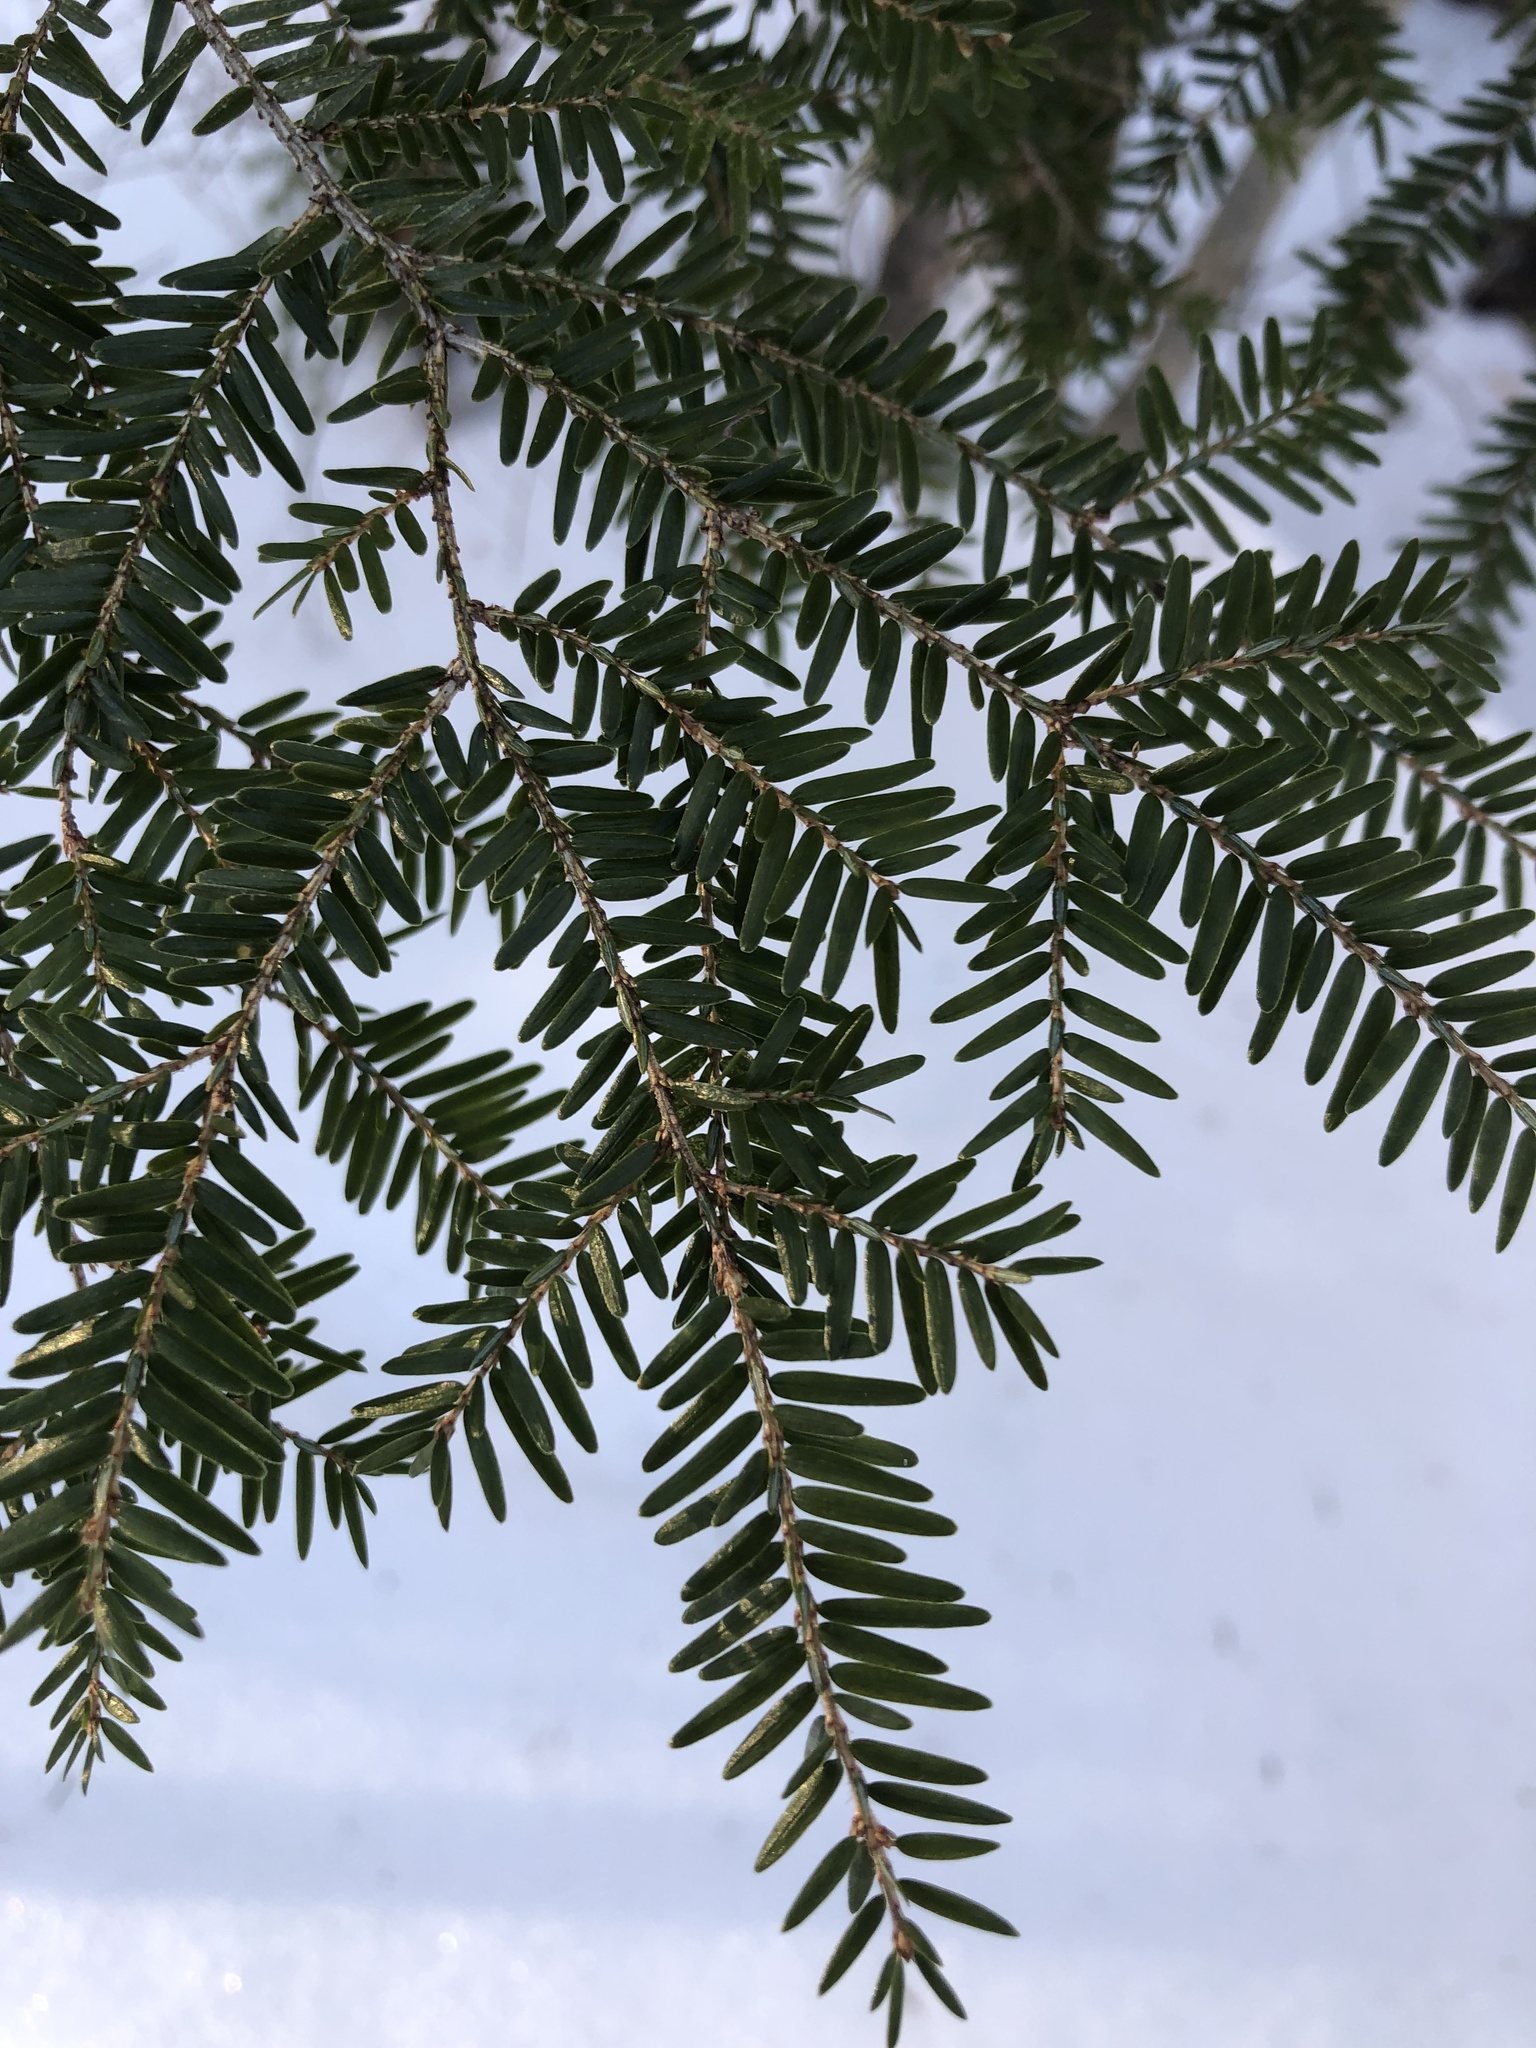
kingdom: Plantae
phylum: Tracheophyta
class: Pinopsida
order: Pinales
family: Pinaceae
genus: Tsuga
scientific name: Tsuga canadensis
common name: Eastern hemlock
